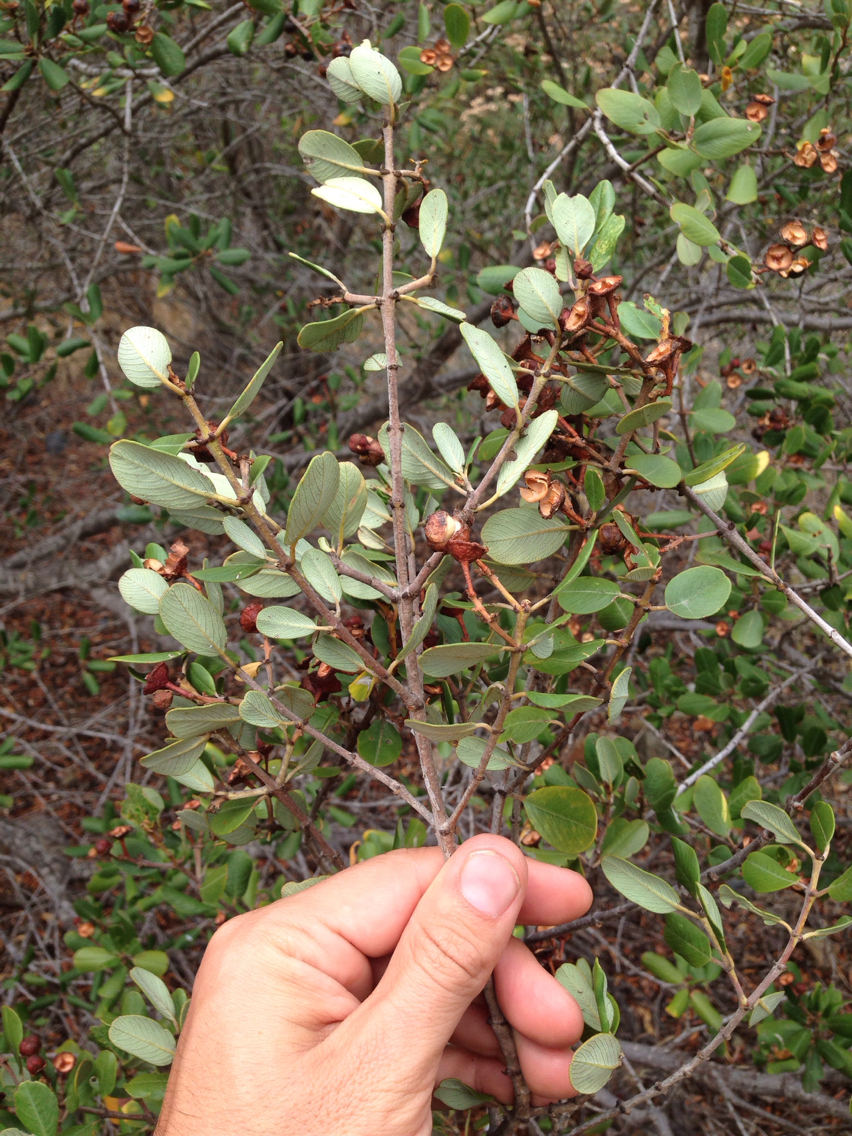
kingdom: Plantae
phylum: Tracheophyta
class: Magnoliopsida
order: Rosales
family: Rhamnaceae
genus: Ceanothus
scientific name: Ceanothus megacarpus
